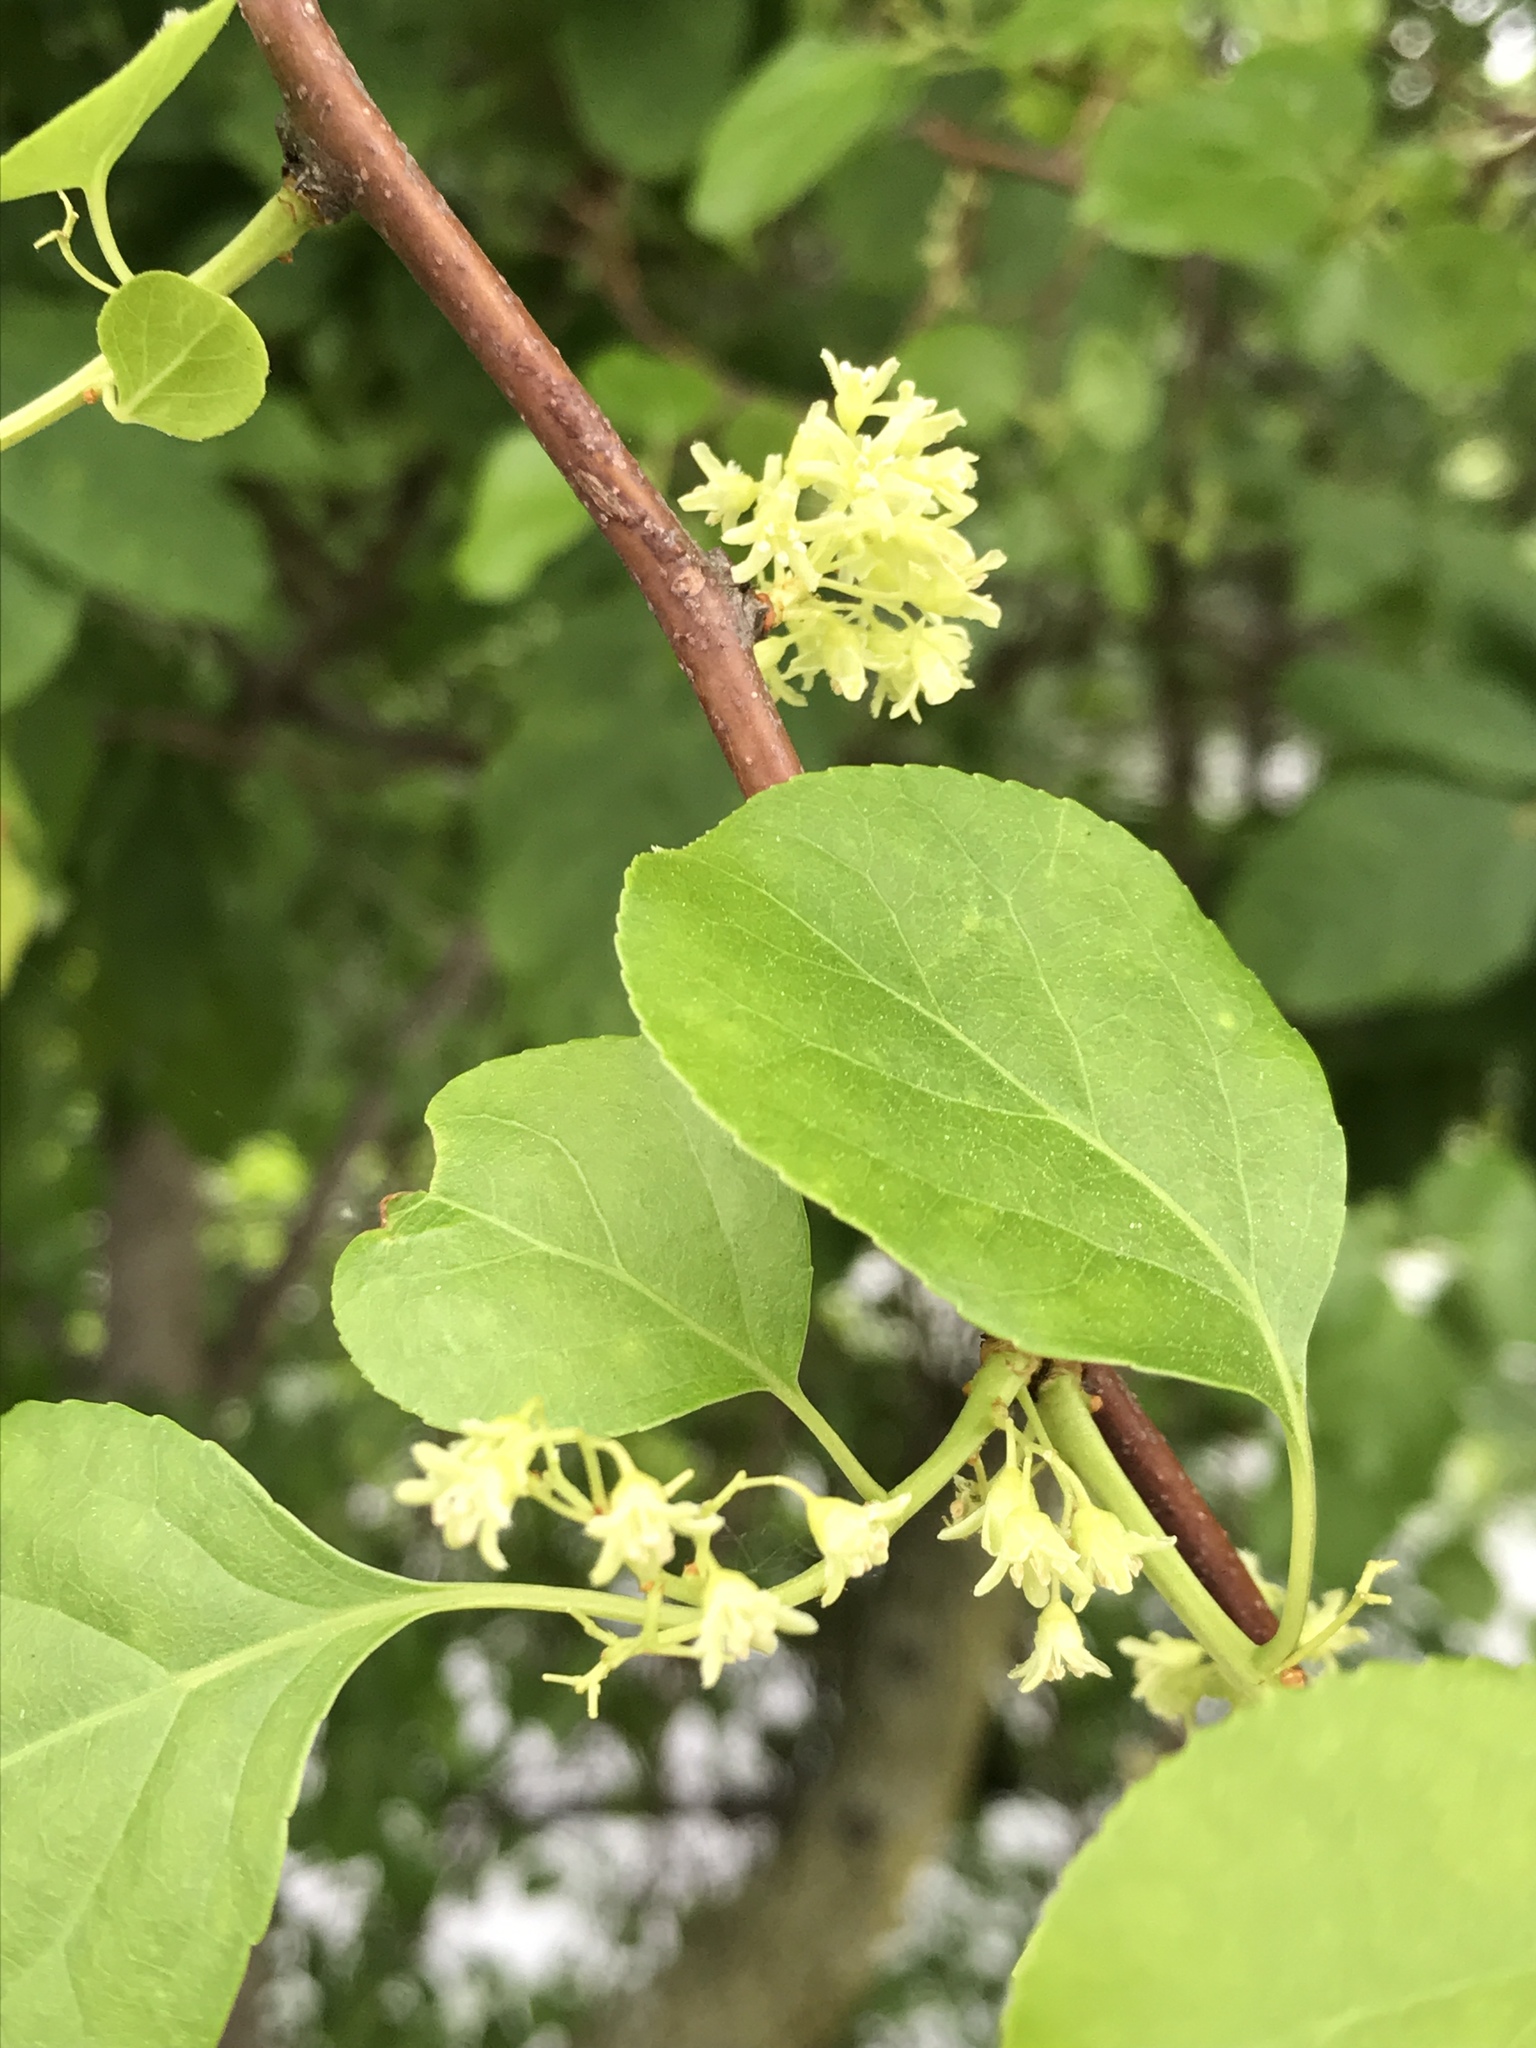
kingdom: Plantae
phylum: Tracheophyta
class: Magnoliopsida
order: Celastrales
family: Celastraceae
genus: Celastrus
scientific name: Celastrus orbiculatus
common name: Oriental bittersweet
